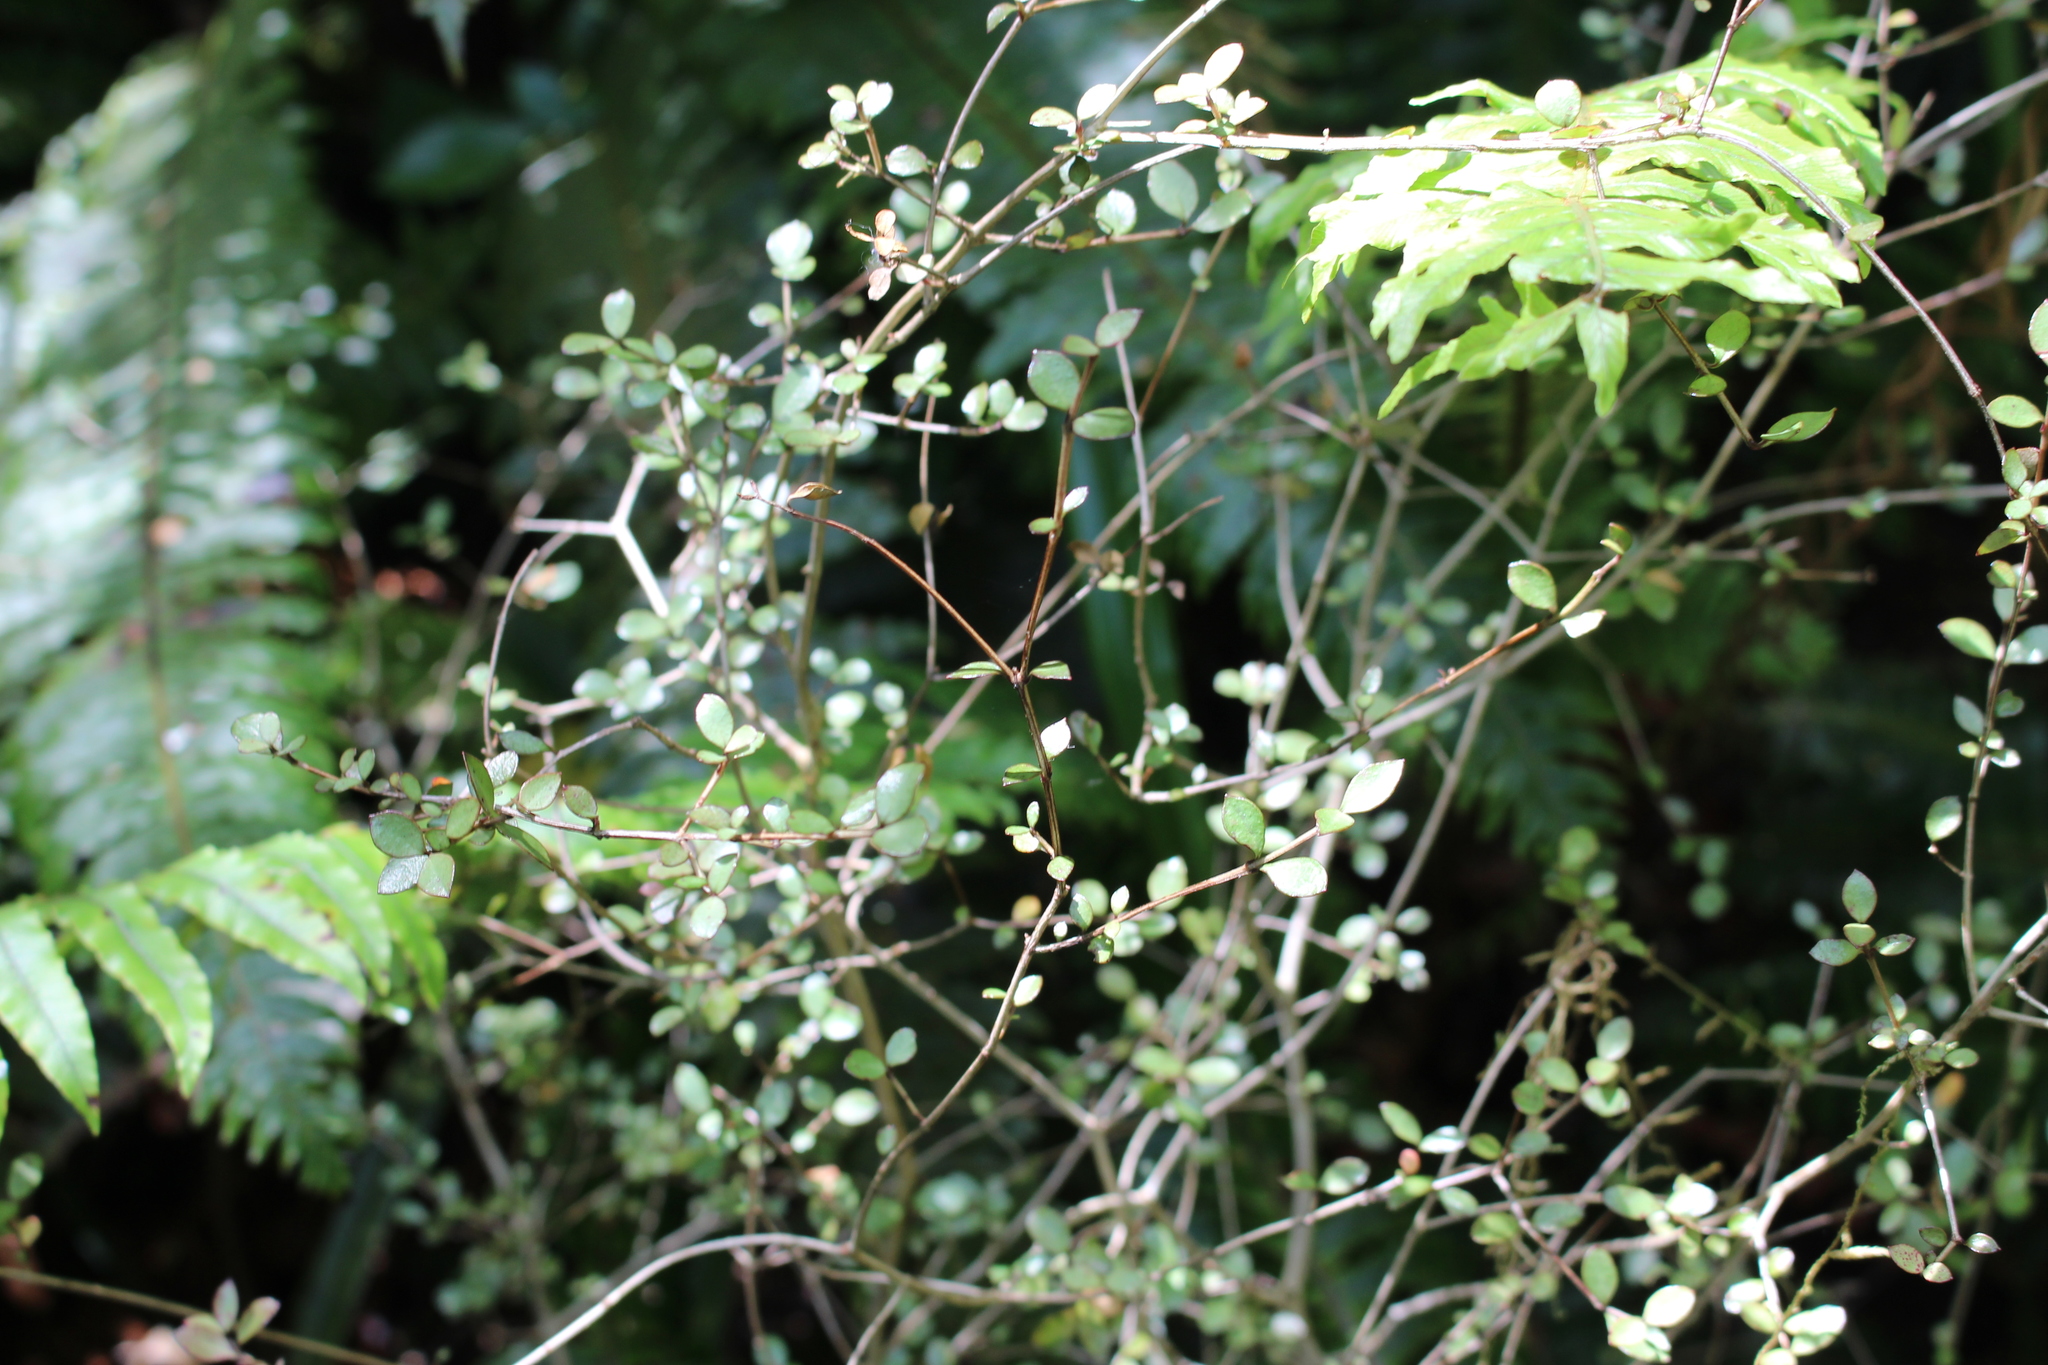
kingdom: Plantae
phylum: Tracheophyta
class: Magnoliopsida
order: Rosales
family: Moraceae
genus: Paratrophis
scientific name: Paratrophis microphylla
